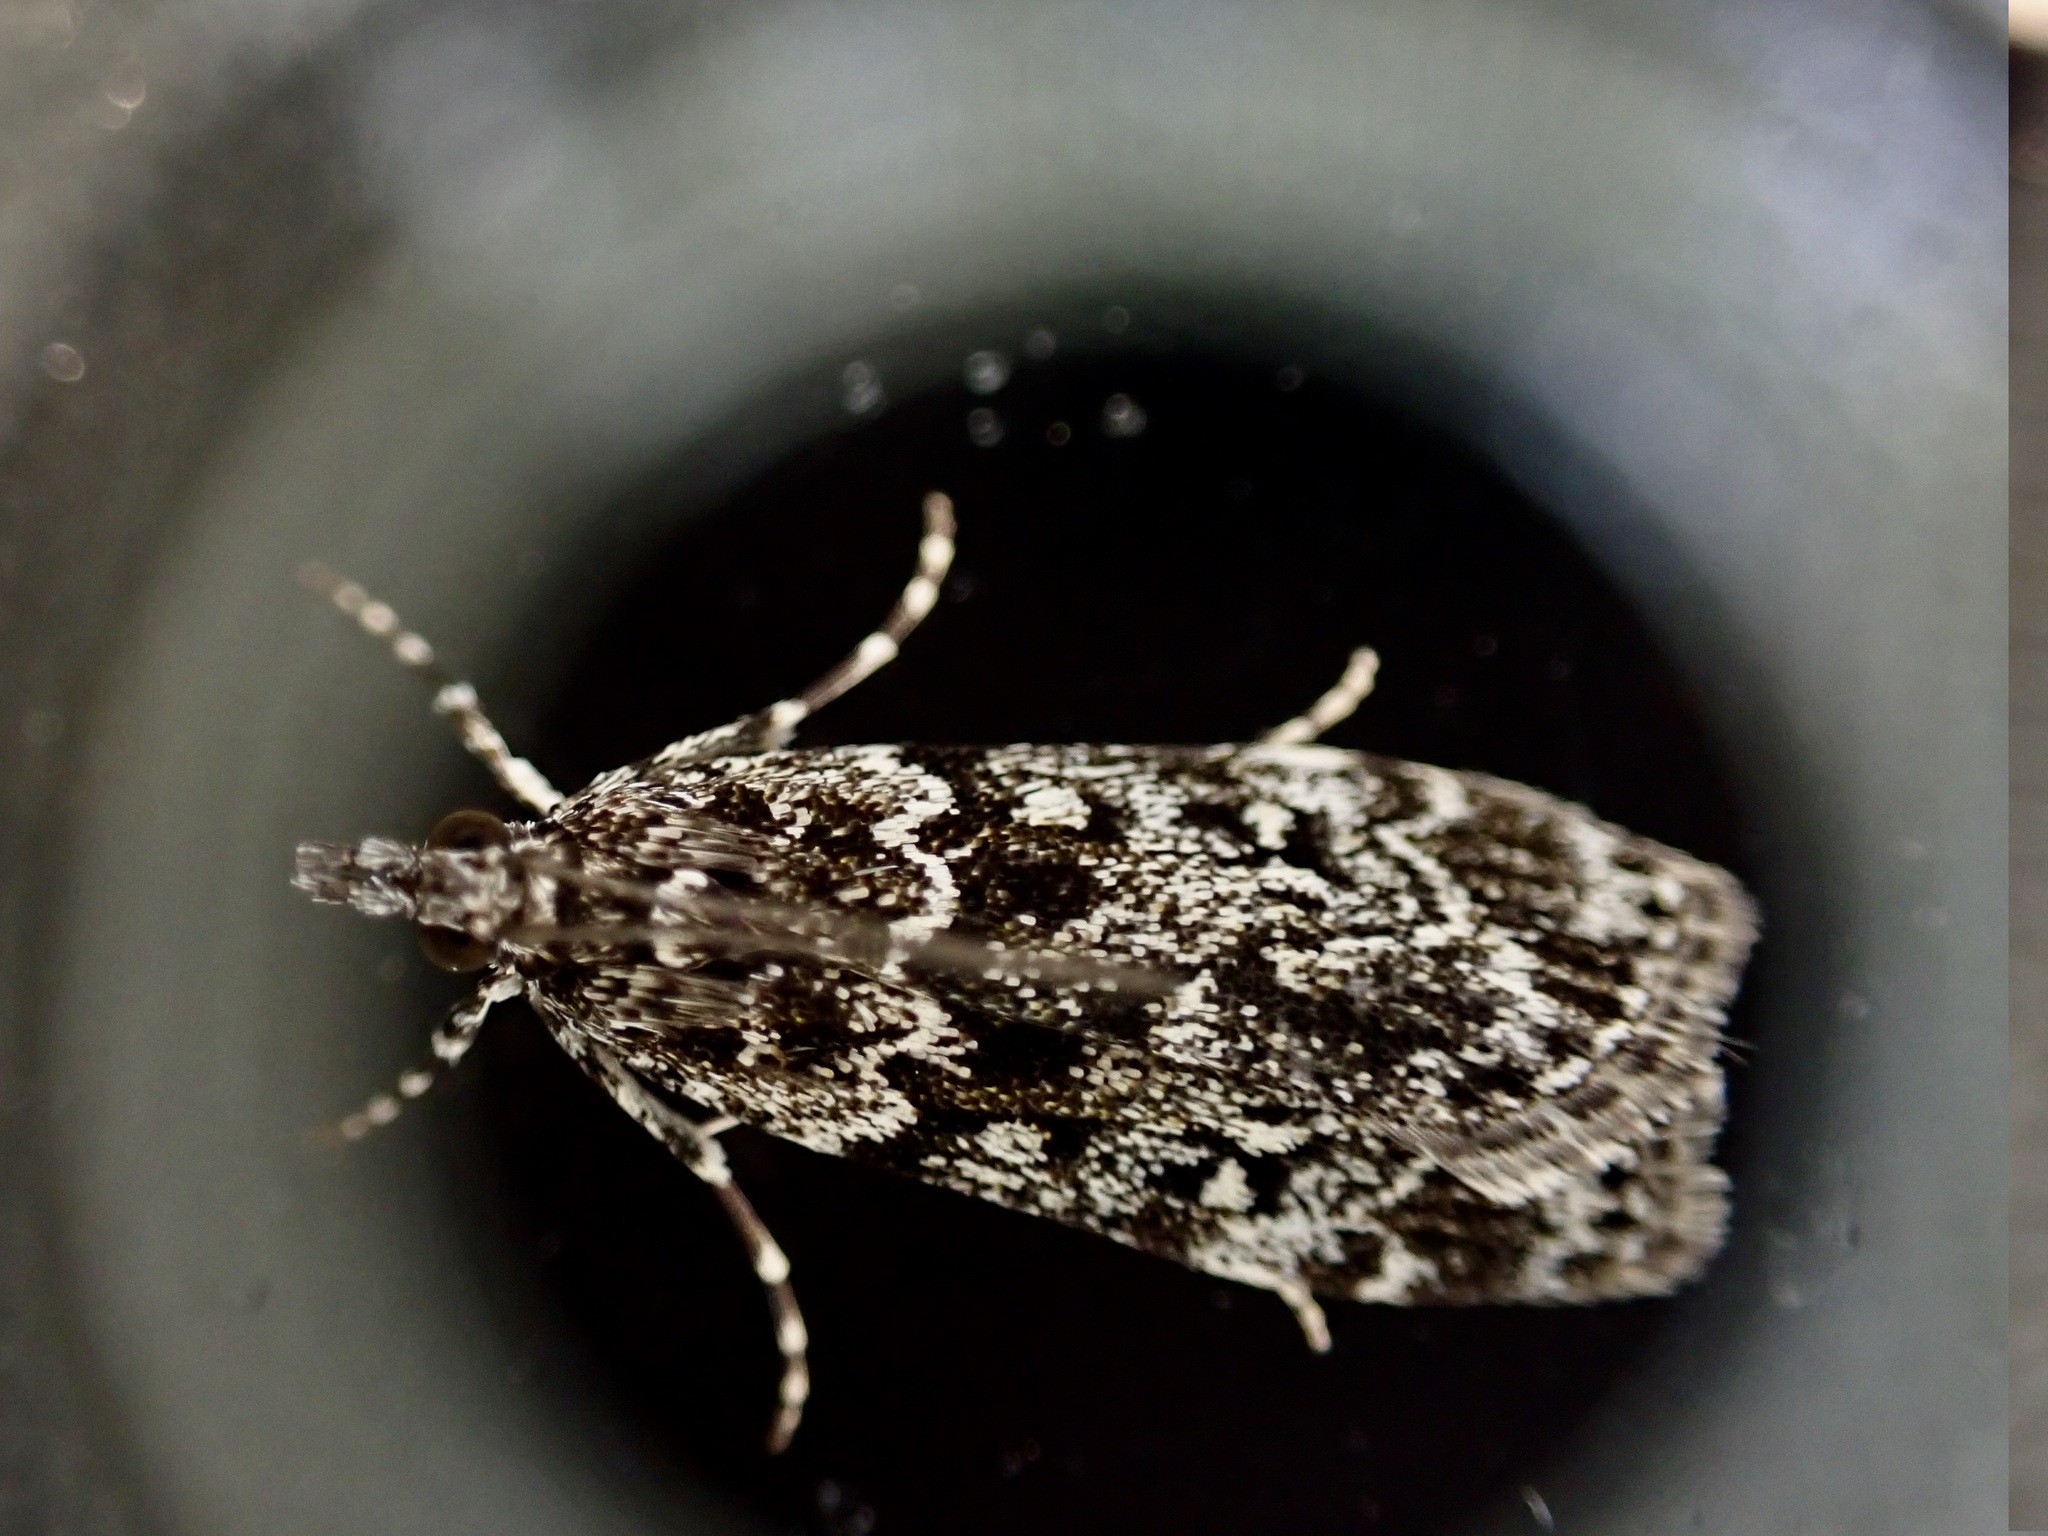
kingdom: Animalia
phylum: Arthropoda
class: Insecta
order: Lepidoptera
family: Crambidae
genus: Eudonia
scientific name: Eudonia philerga
